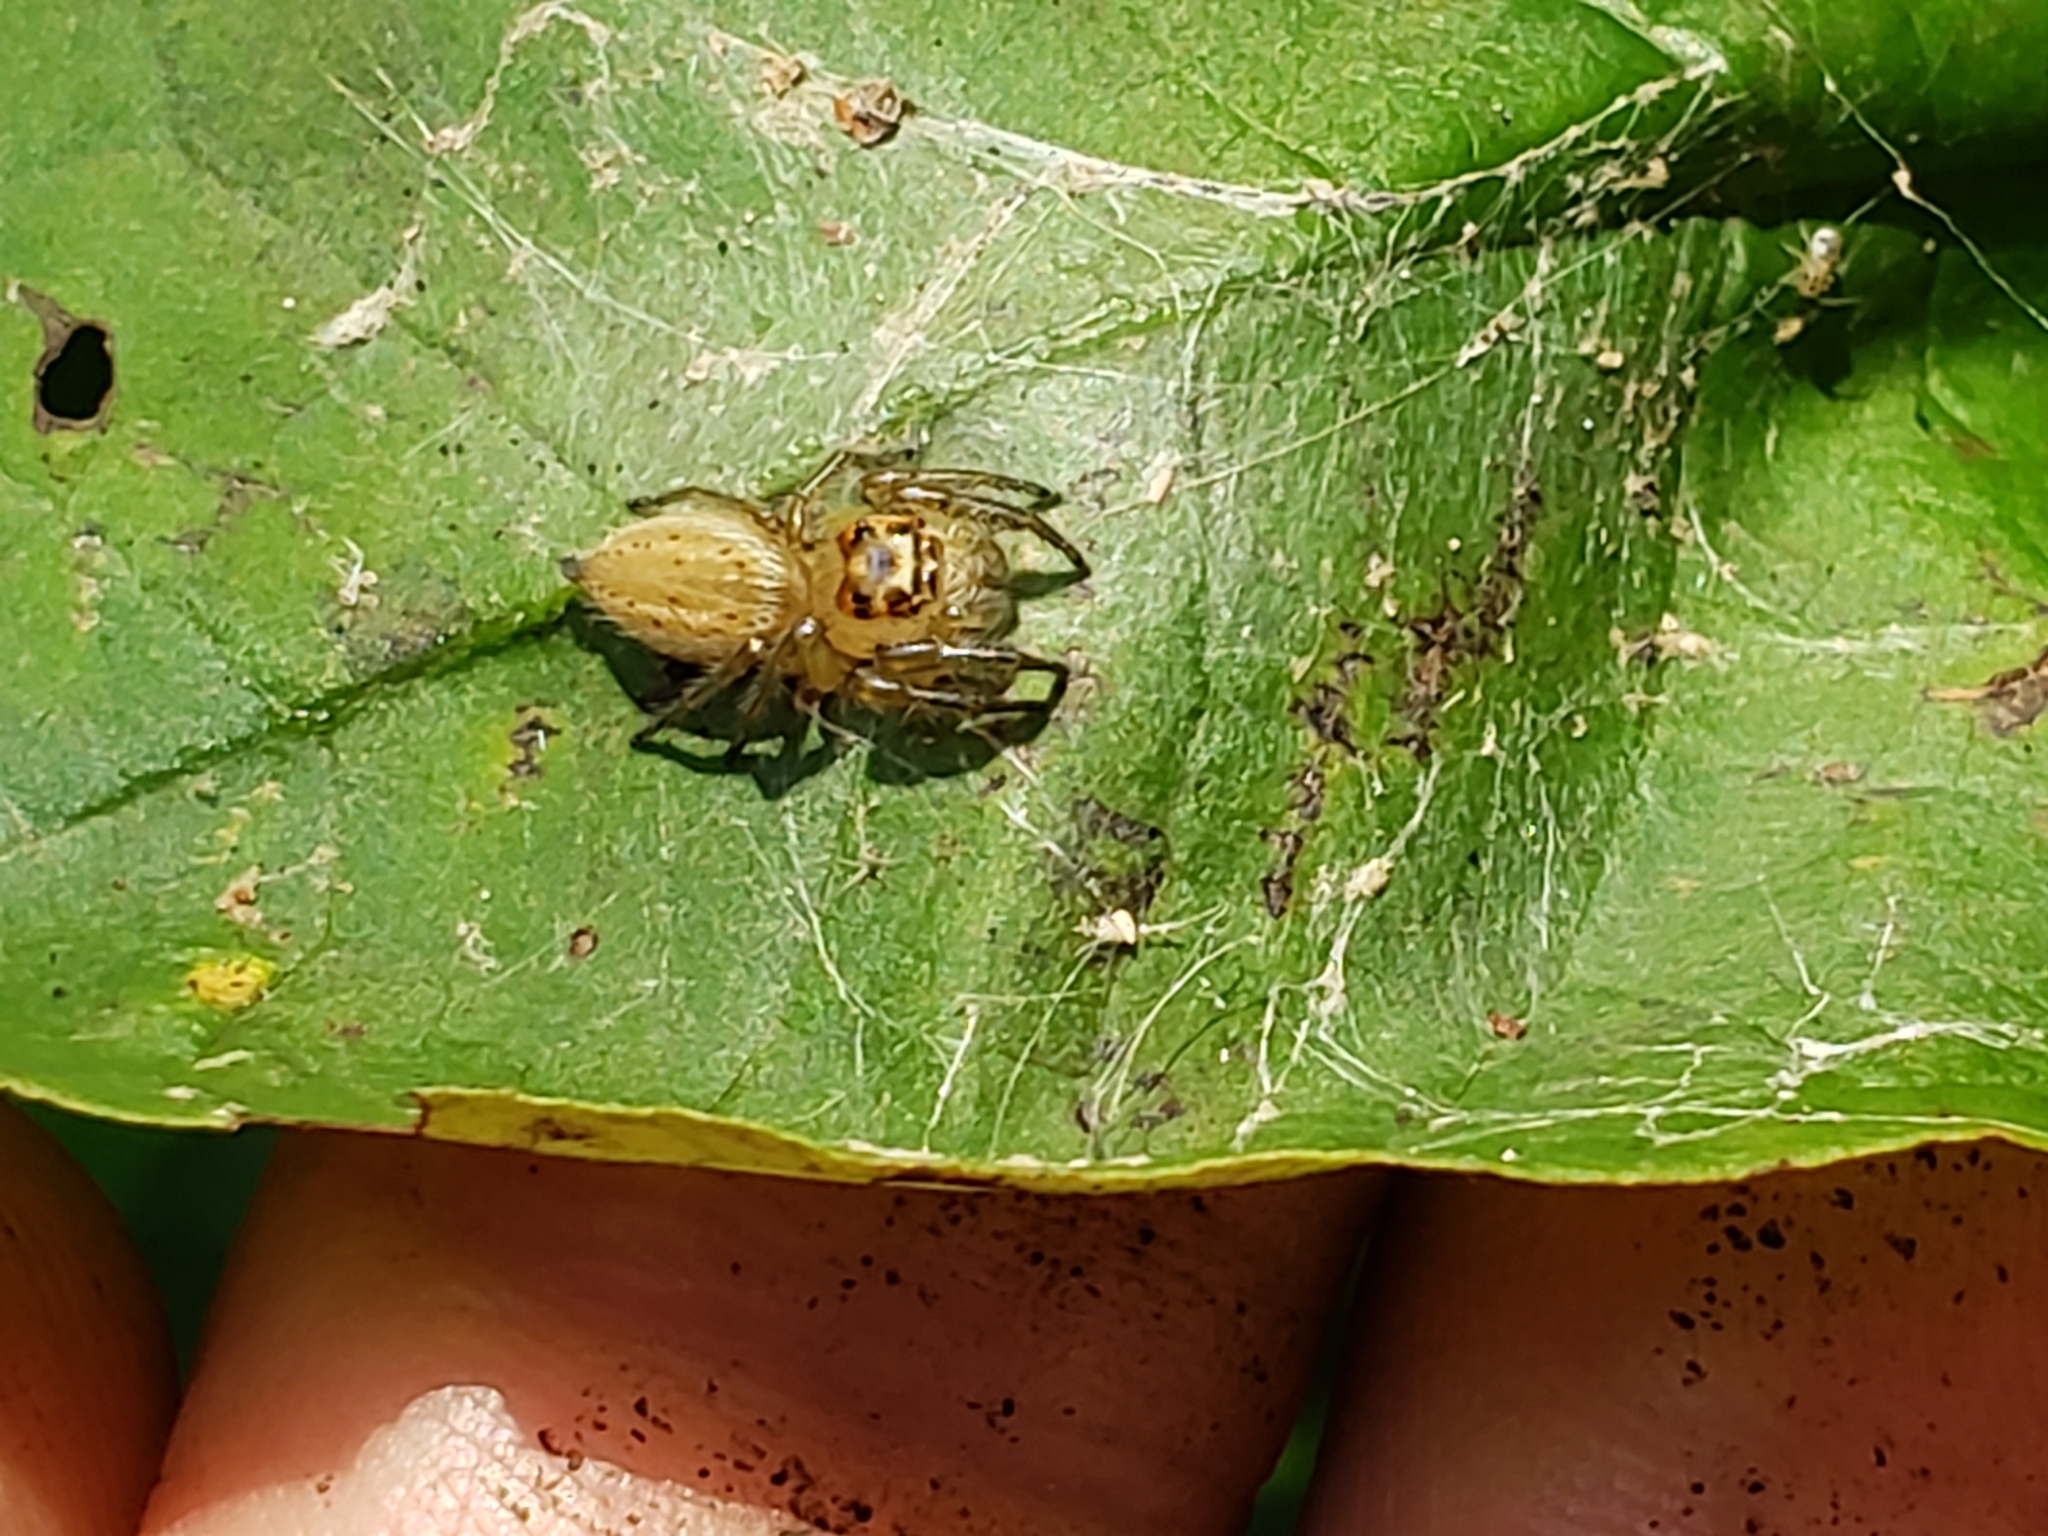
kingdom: Animalia
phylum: Arthropoda
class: Arachnida
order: Araneae
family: Salticidae
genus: Colonus
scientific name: Colonus sylvanus
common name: Jumping spiders
